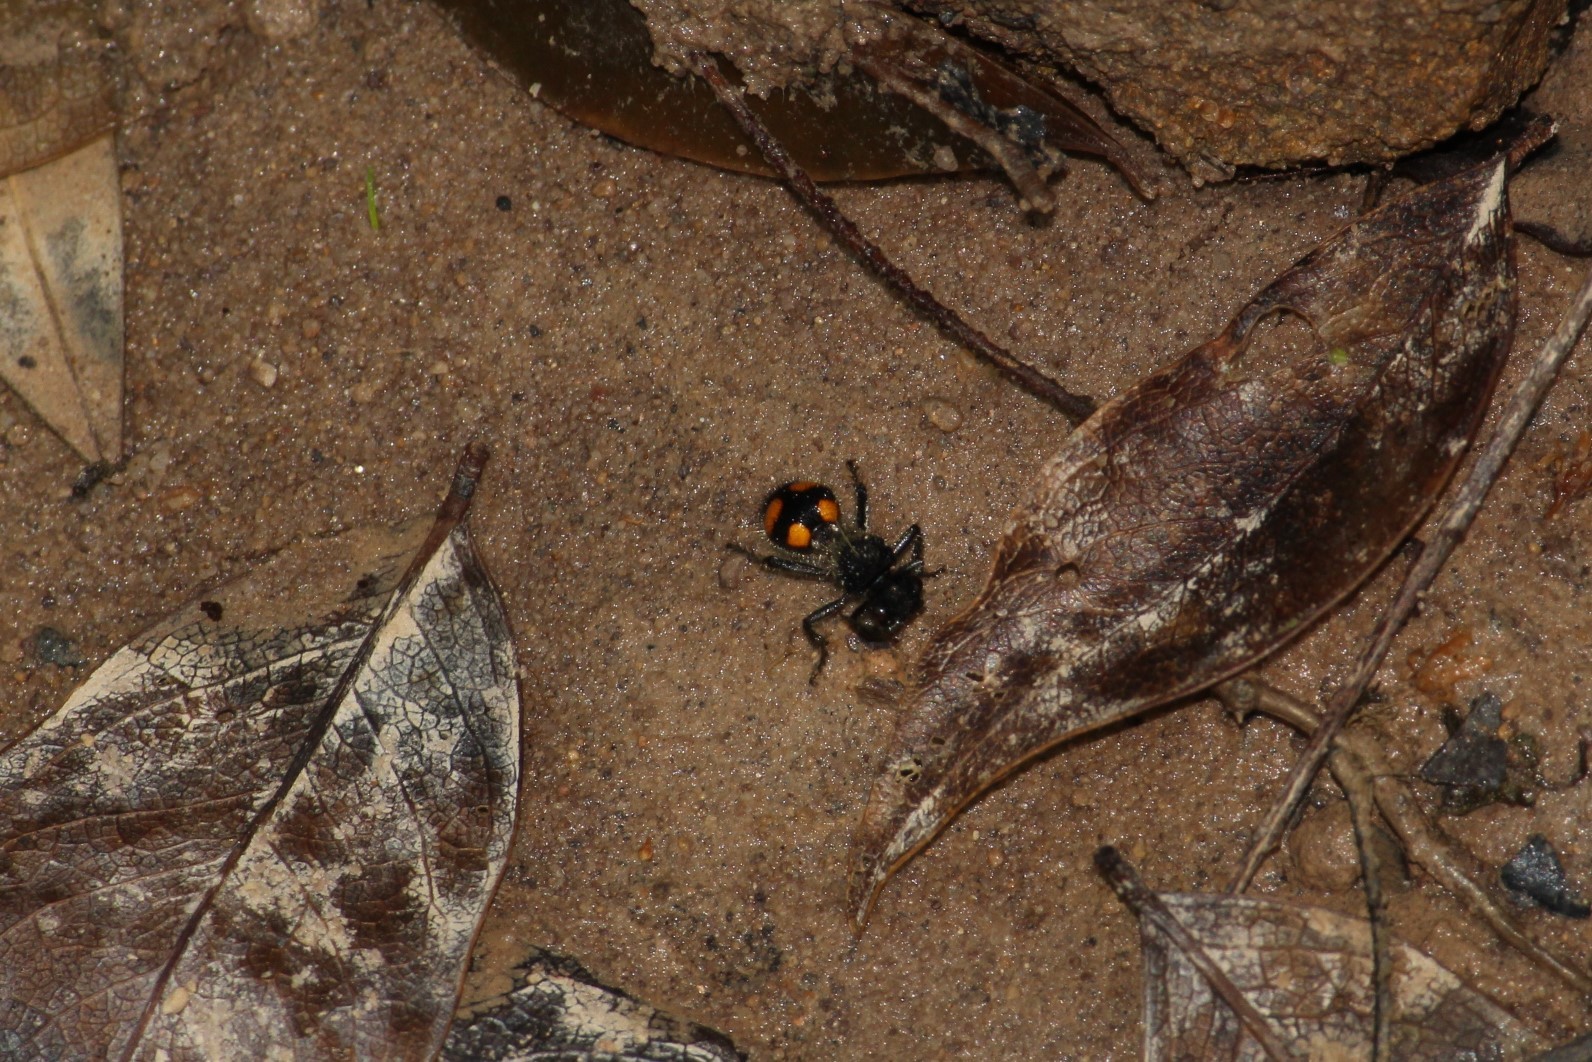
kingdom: Animalia
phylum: Arthropoda
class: Insecta
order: Hymenoptera
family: Mutillidae
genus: Traumatomutilla
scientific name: Traumatomutilla inermis
